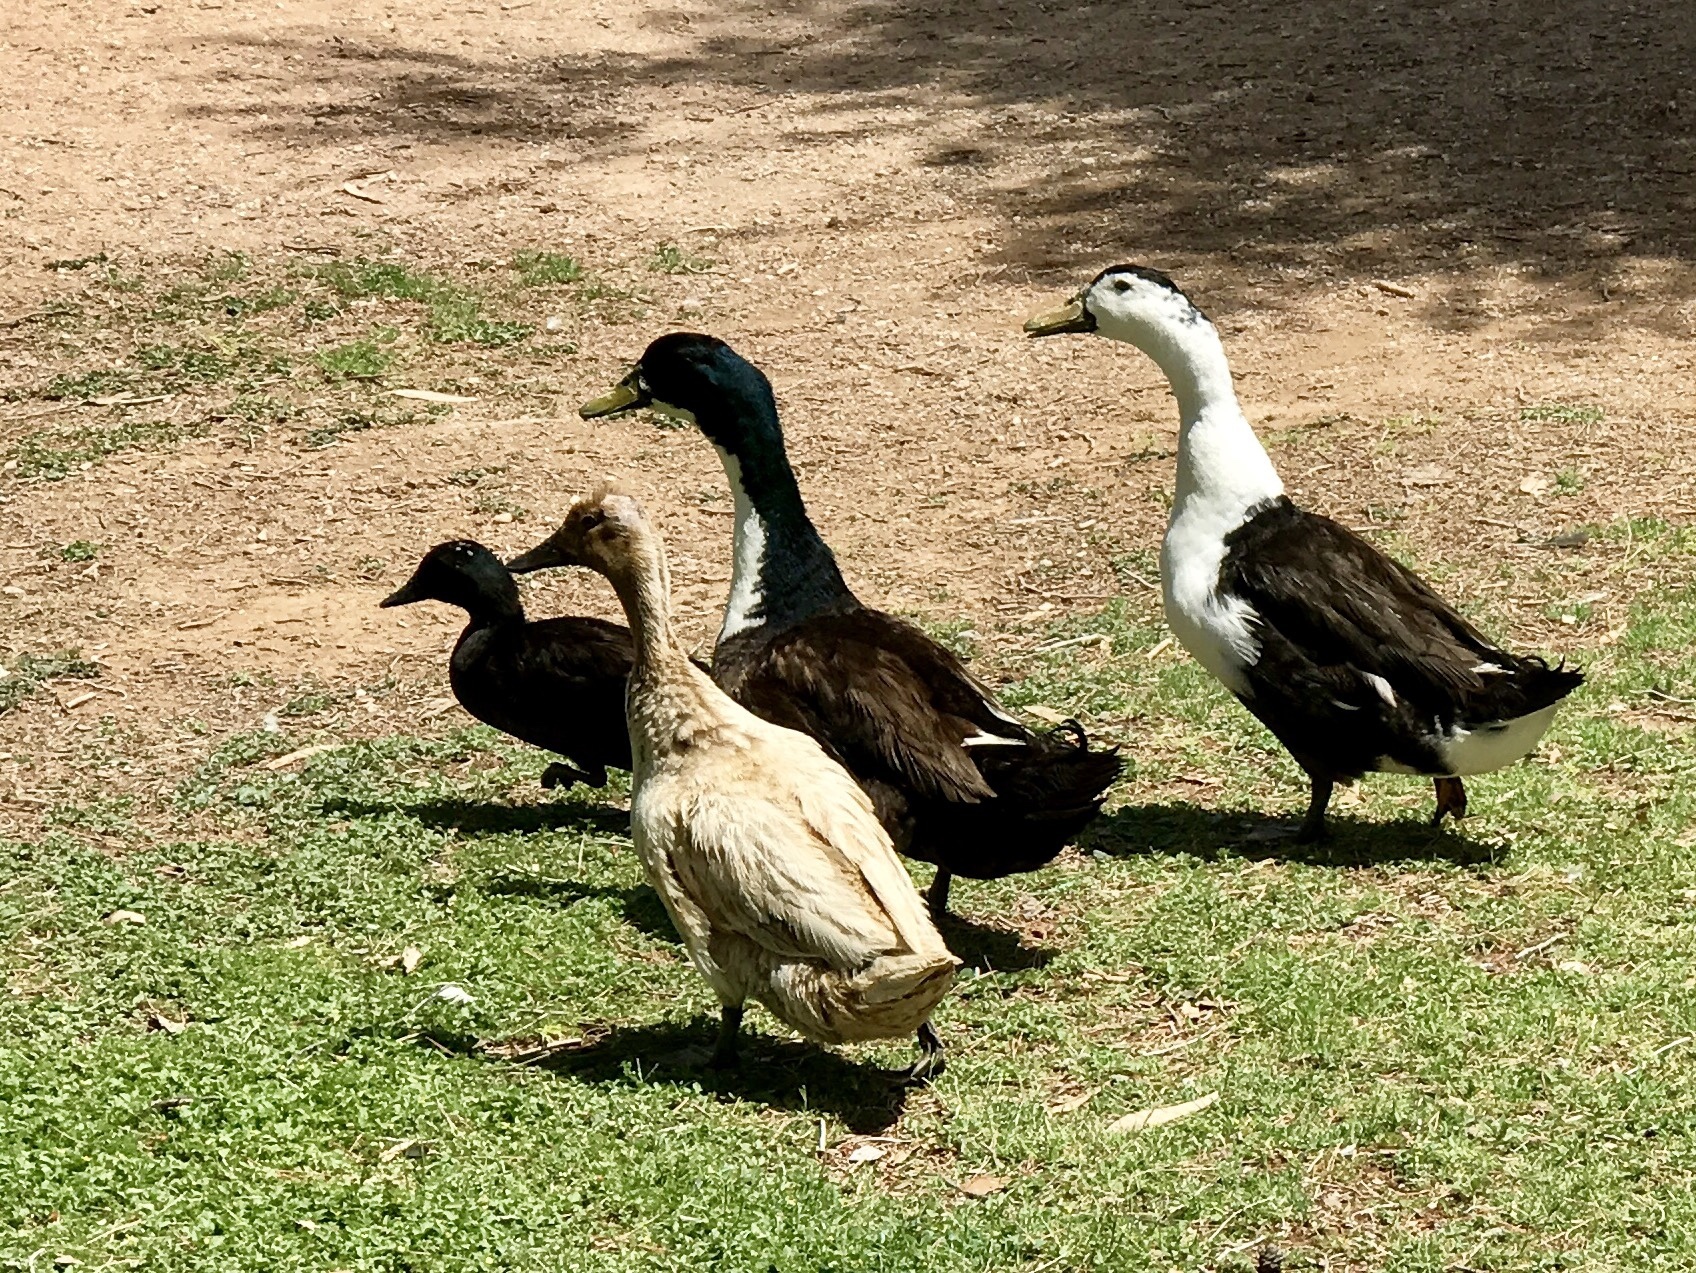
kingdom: Animalia
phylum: Chordata
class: Aves
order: Anseriformes
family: Anatidae
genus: Anas
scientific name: Anas platyrhynchos
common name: Mallard
